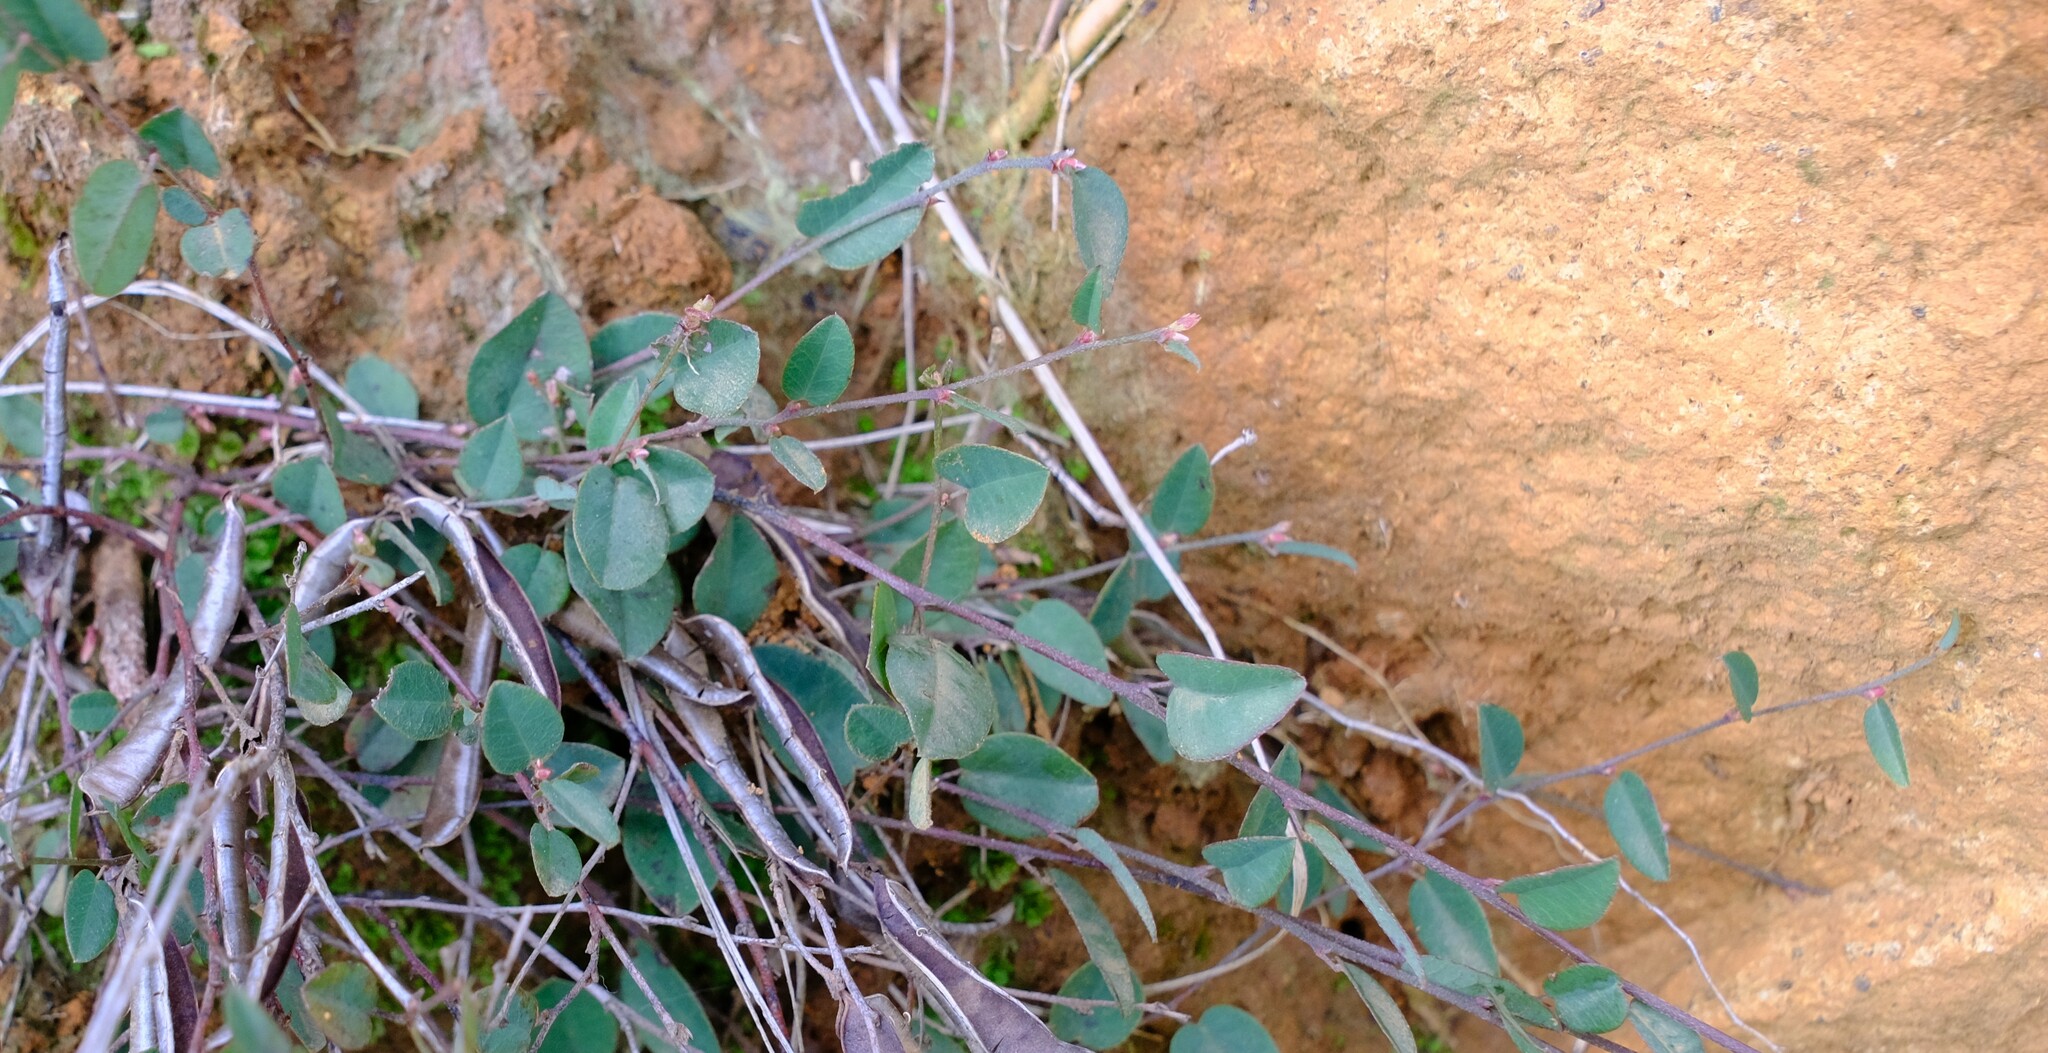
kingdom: Plantae
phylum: Tracheophyta
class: Magnoliopsida
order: Fabales
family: Fabaceae
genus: Bossiaea
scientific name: Bossiaea prostrata
